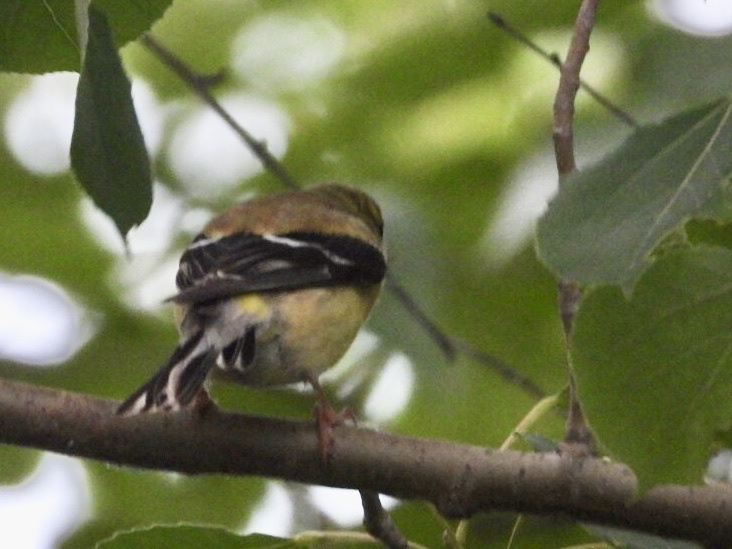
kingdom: Animalia
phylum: Chordata
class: Aves
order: Passeriformes
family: Fringillidae
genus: Spinus
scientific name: Spinus tristis
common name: American goldfinch
